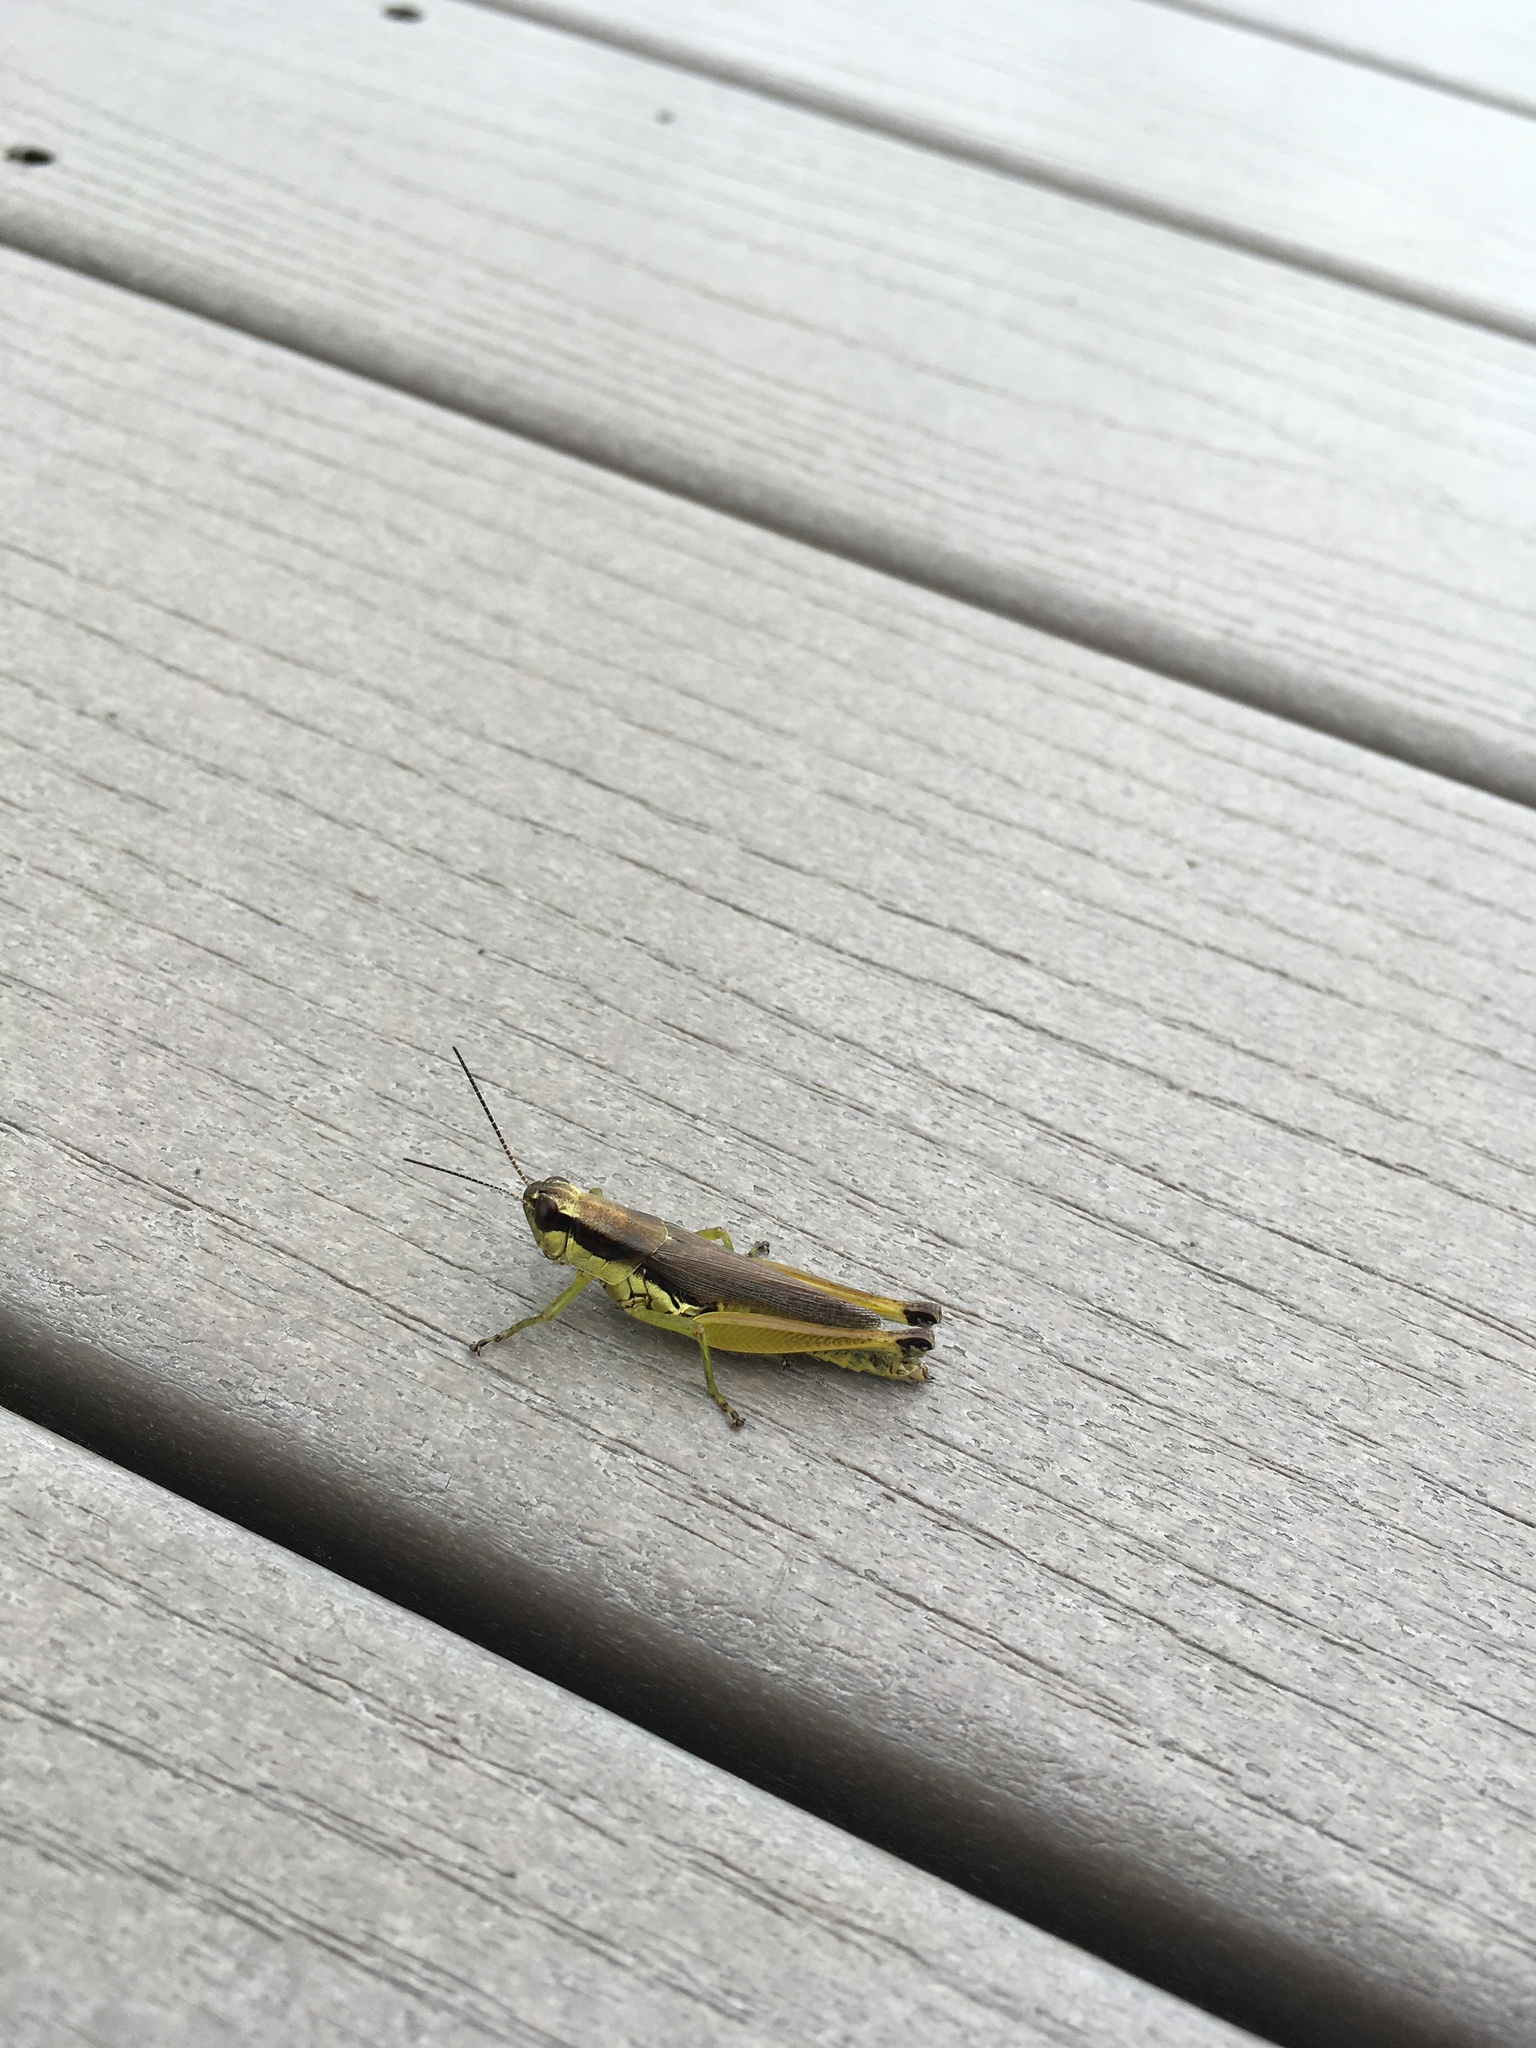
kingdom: Animalia
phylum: Arthropoda
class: Insecta
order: Orthoptera
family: Acrididae
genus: Paroxya
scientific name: Paroxya clavuligera
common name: Olive-green swamp grasshopper
